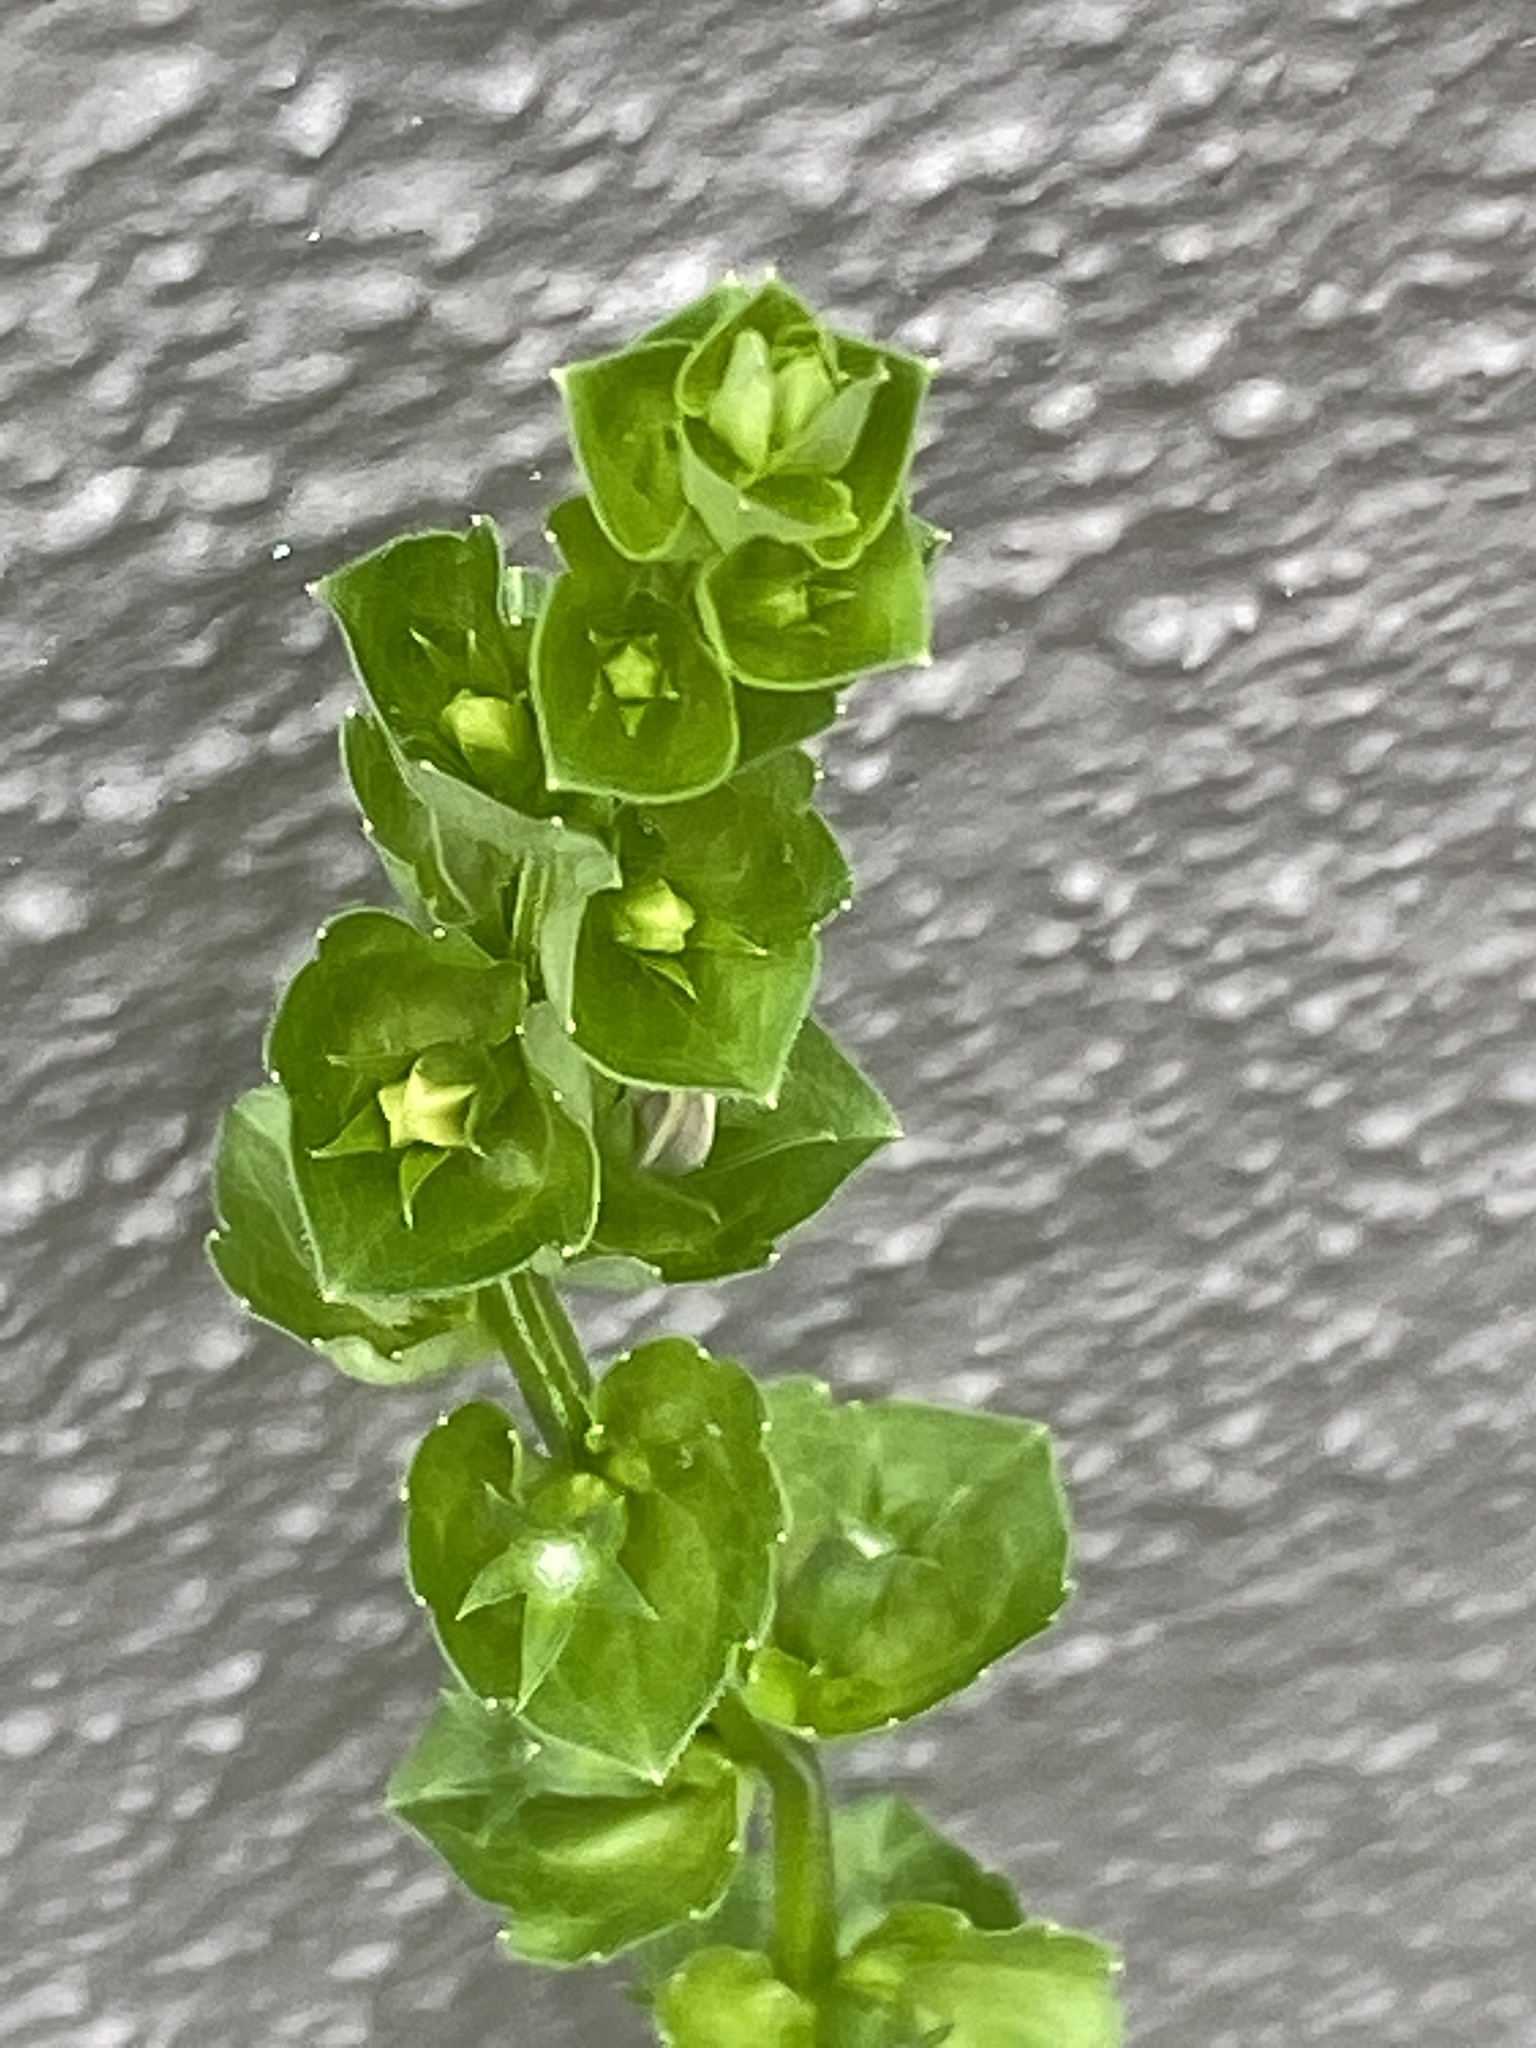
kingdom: Plantae
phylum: Tracheophyta
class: Magnoliopsida
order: Asterales
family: Campanulaceae
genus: Triodanis
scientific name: Triodanis perfoliata
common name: Clasping venus' looking-glass
